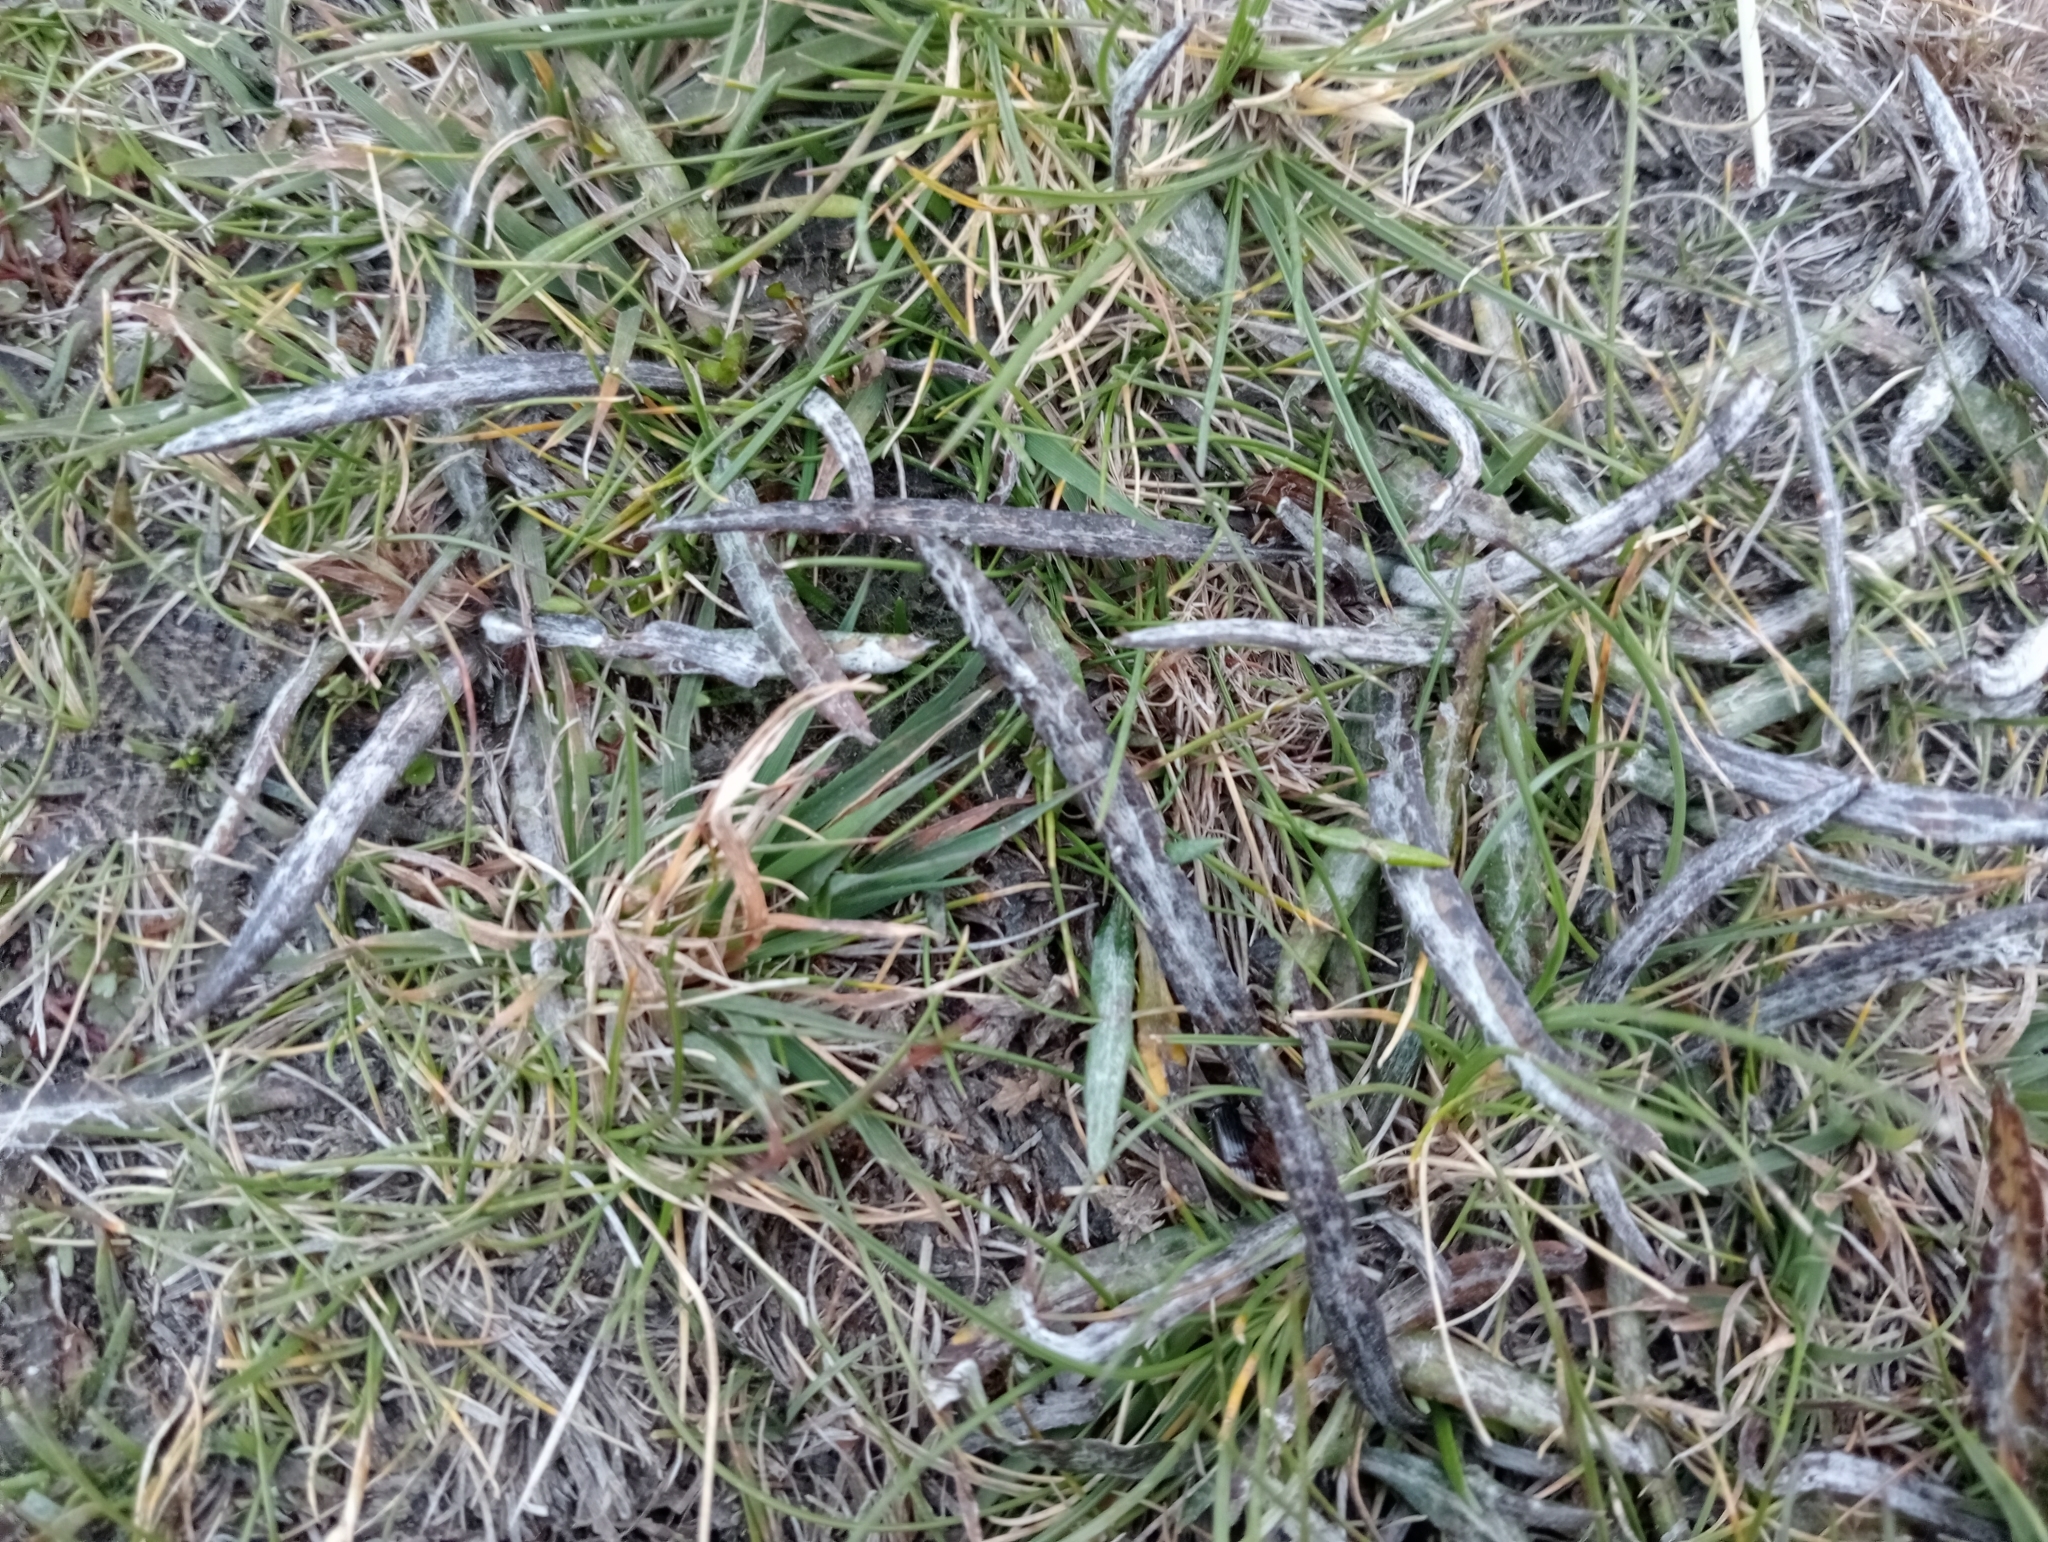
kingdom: Plantae
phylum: Tracheophyta
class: Magnoliopsida
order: Asterales
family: Asteraceae
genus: Celmisia
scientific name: Celmisia gracilenta
